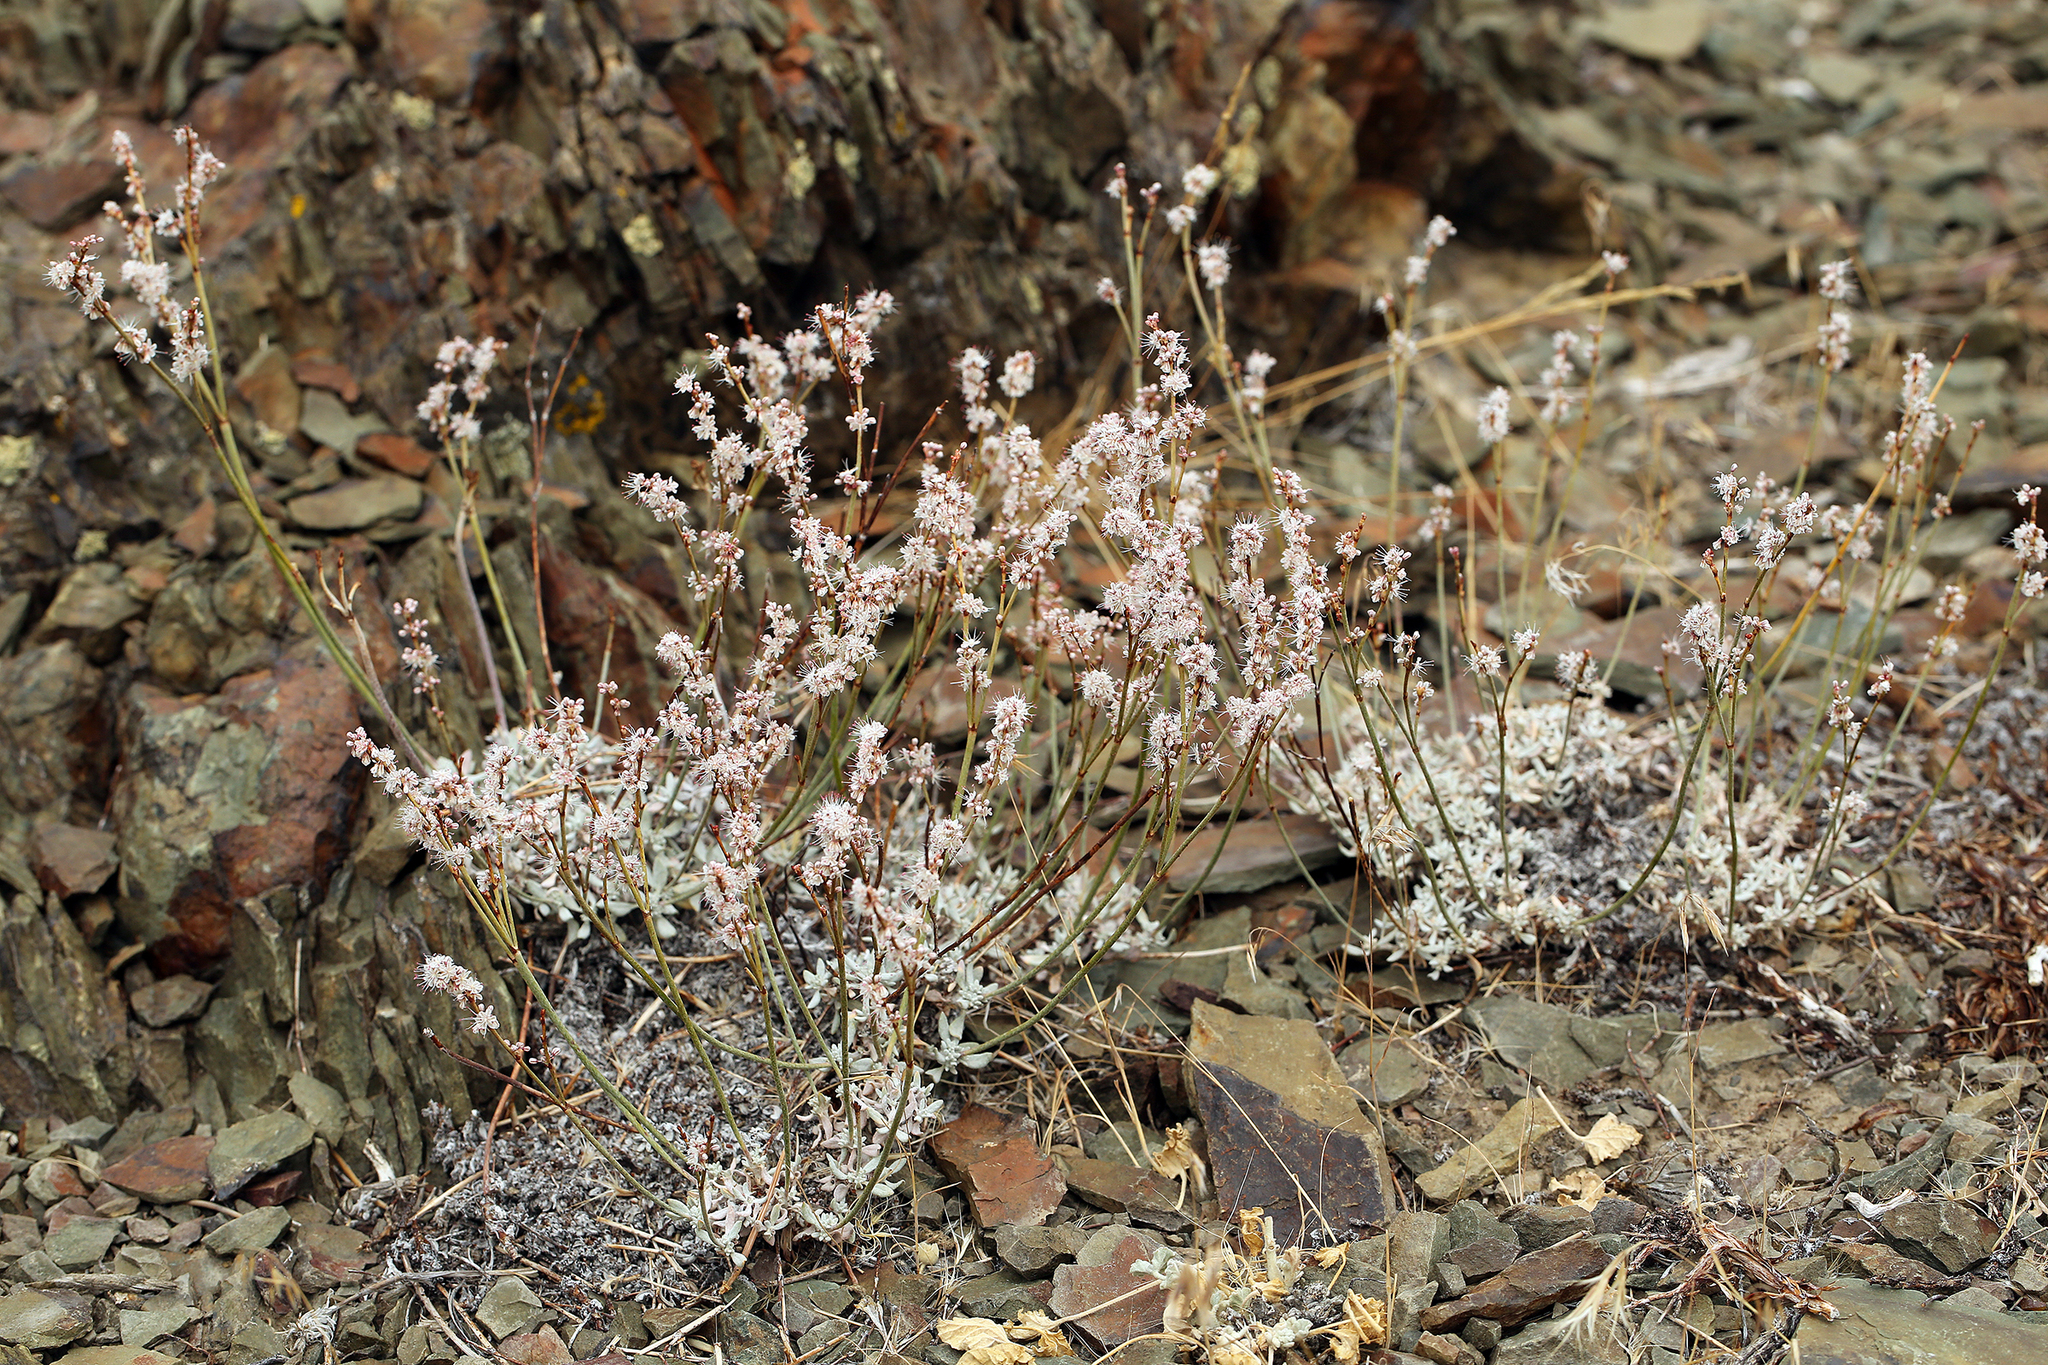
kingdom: Plantae
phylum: Tracheophyta
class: Magnoliopsida
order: Caryophyllales
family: Polygonaceae
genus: Eriogonum
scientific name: Eriogonum wrightii
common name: Bastard-sage
